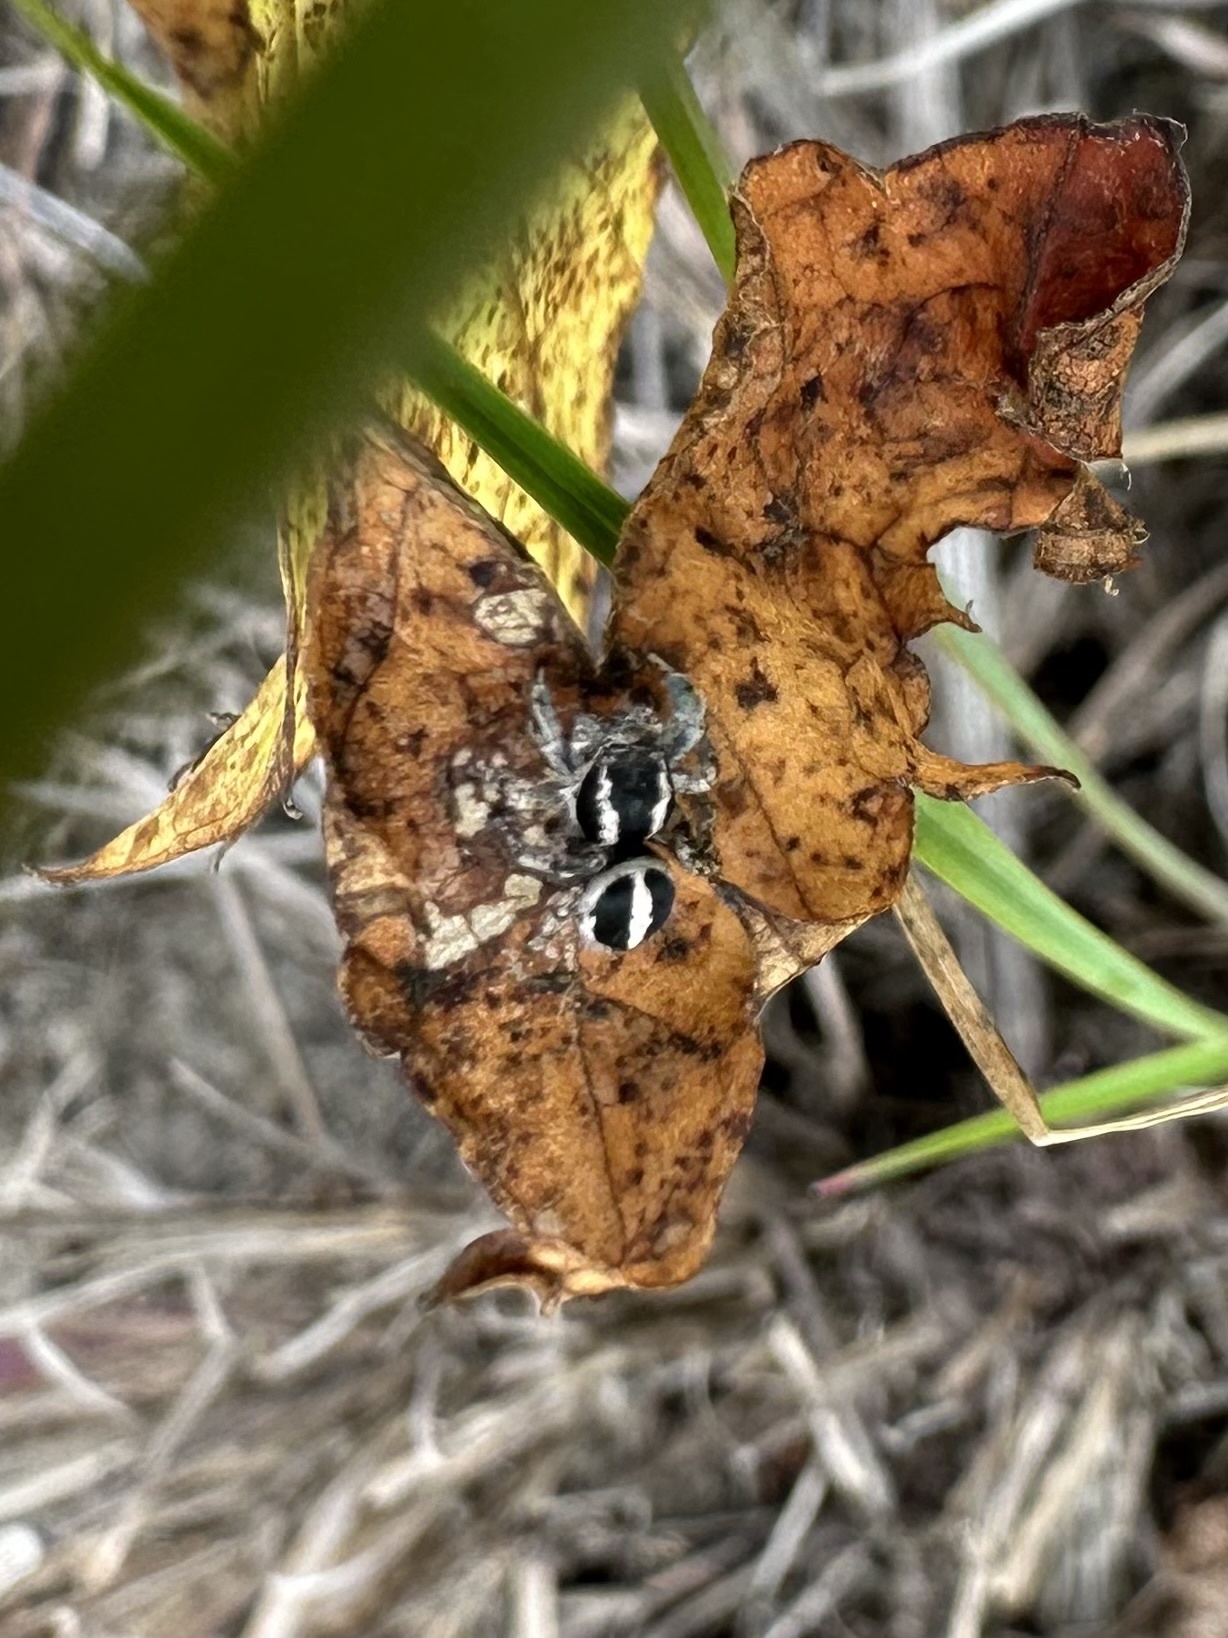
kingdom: Animalia
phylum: Arthropoda
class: Arachnida
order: Araneae
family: Salticidae
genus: Habronattus
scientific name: Habronattus cognatus
